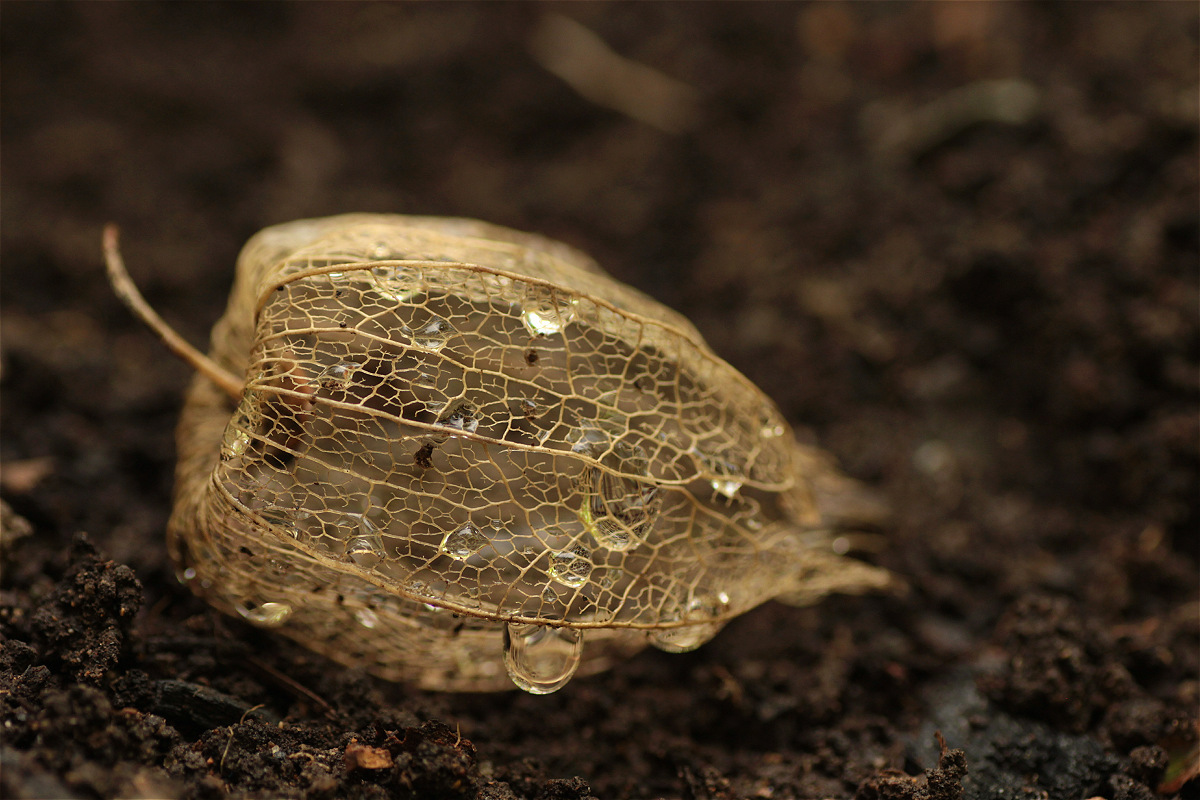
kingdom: Plantae
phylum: Tracheophyta
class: Magnoliopsida
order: Solanales
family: Solanaceae
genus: Physalis
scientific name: Physalis peruviana
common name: Cape-gooseberry
